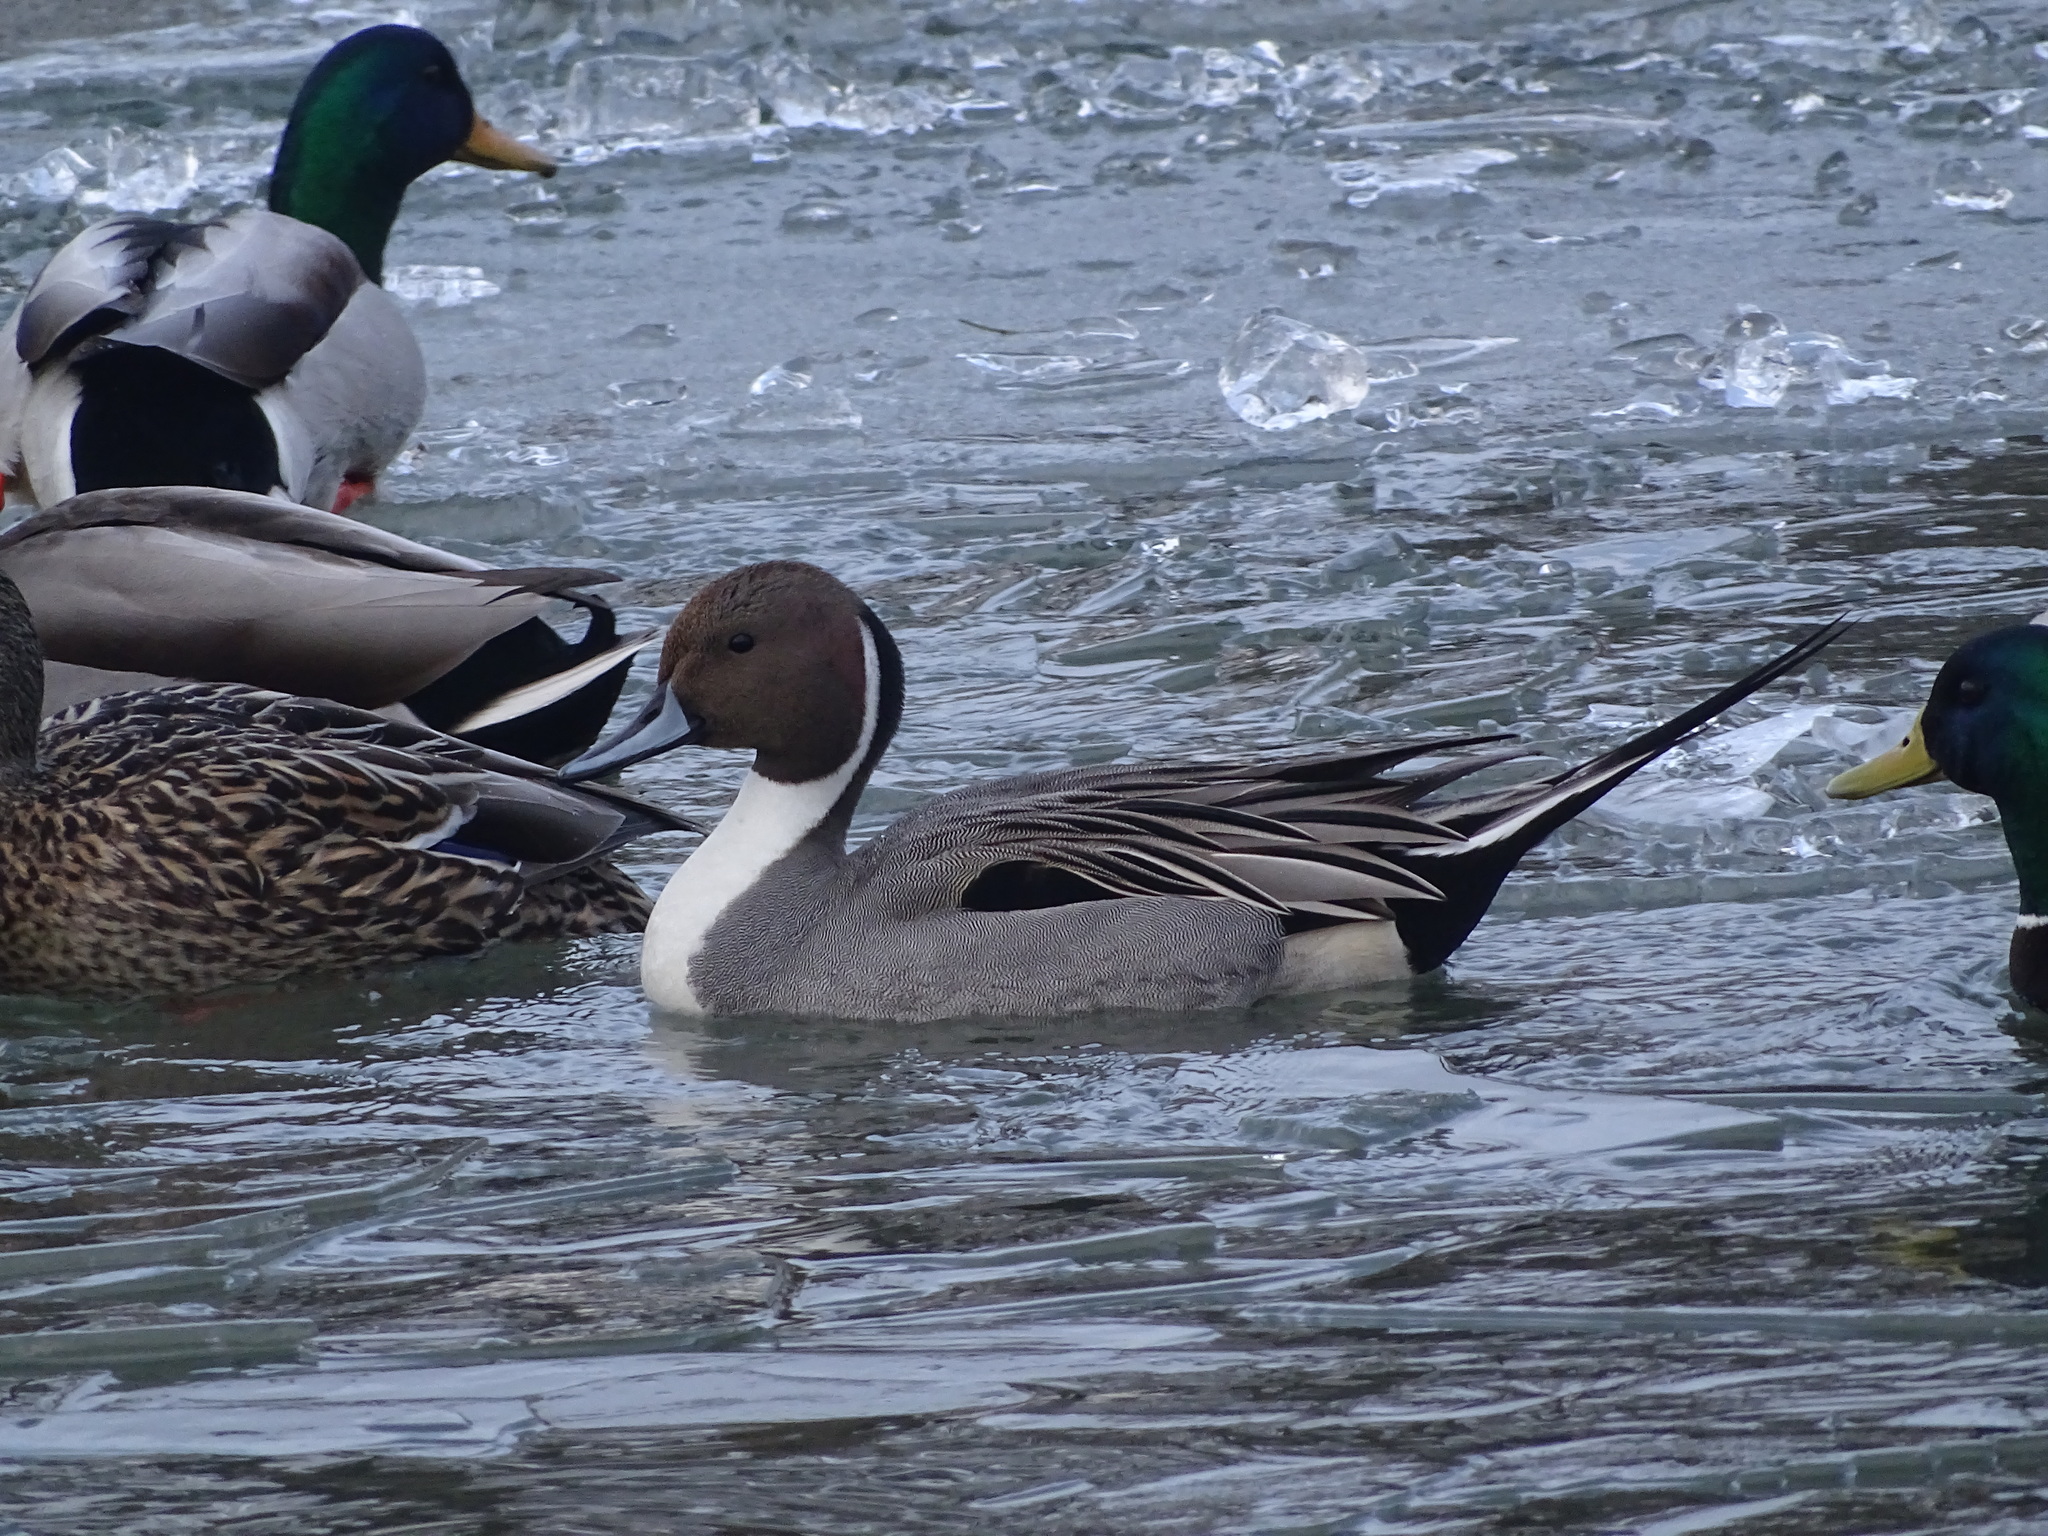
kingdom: Animalia
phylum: Chordata
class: Aves
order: Anseriformes
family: Anatidae
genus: Anas
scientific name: Anas acuta
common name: Northern pintail
